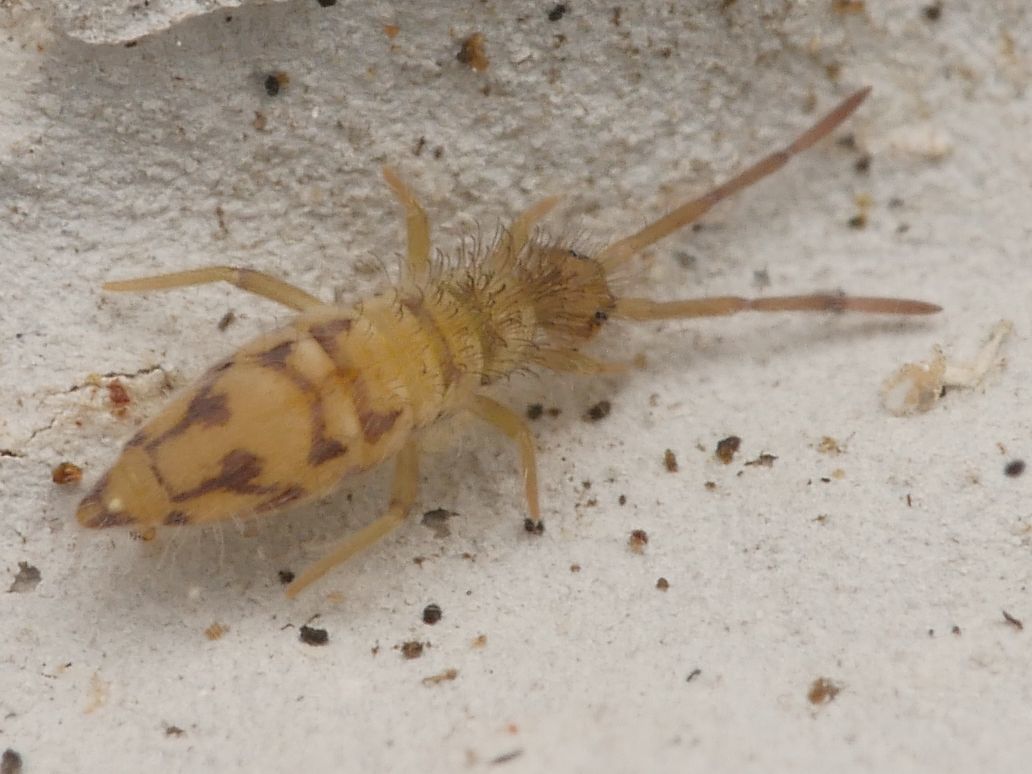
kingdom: Animalia
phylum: Arthropoda
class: Collembola
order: Entomobryomorpha
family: Entomobryidae
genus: Entomobrya
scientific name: Entomobrya nivalis
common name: Cosmopolitan springtail
